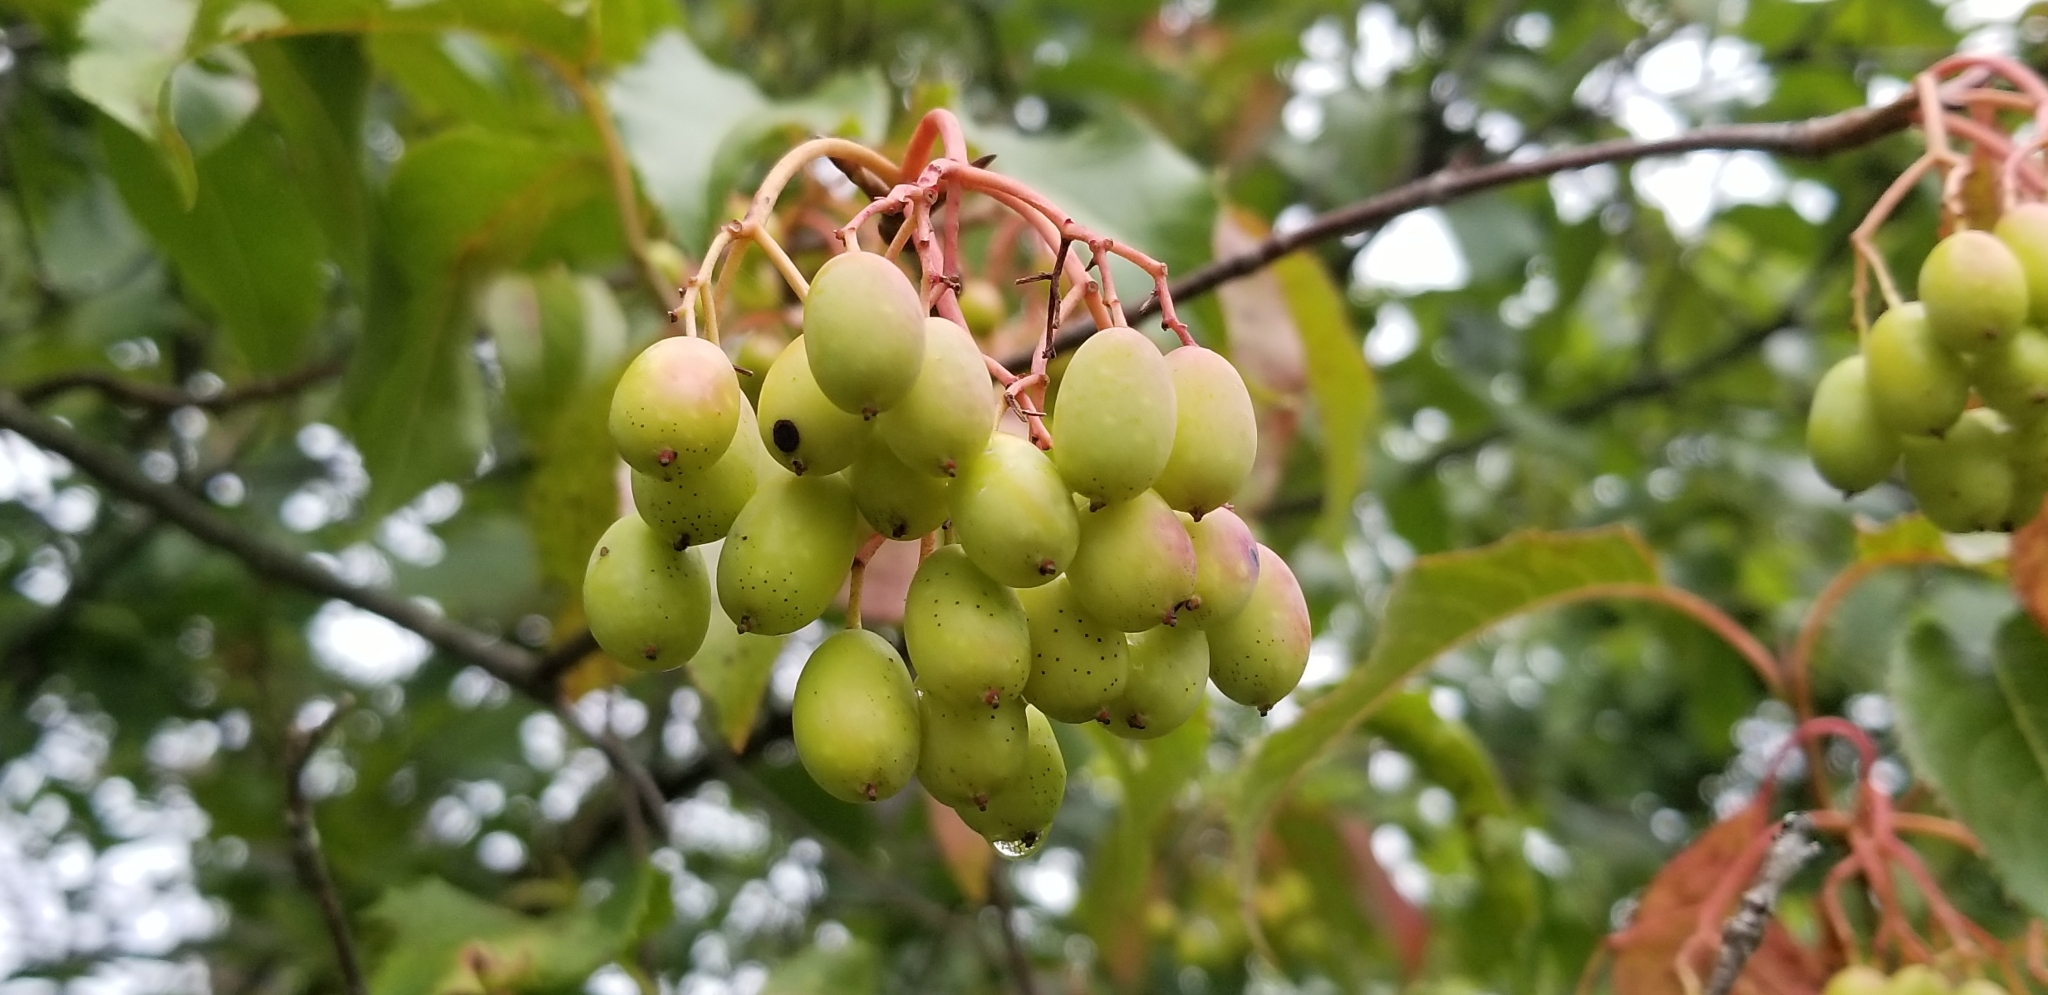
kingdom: Plantae
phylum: Tracheophyta
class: Magnoliopsida
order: Dipsacales
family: Viburnaceae
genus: Viburnum
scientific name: Viburnum lentago
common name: Black haw
